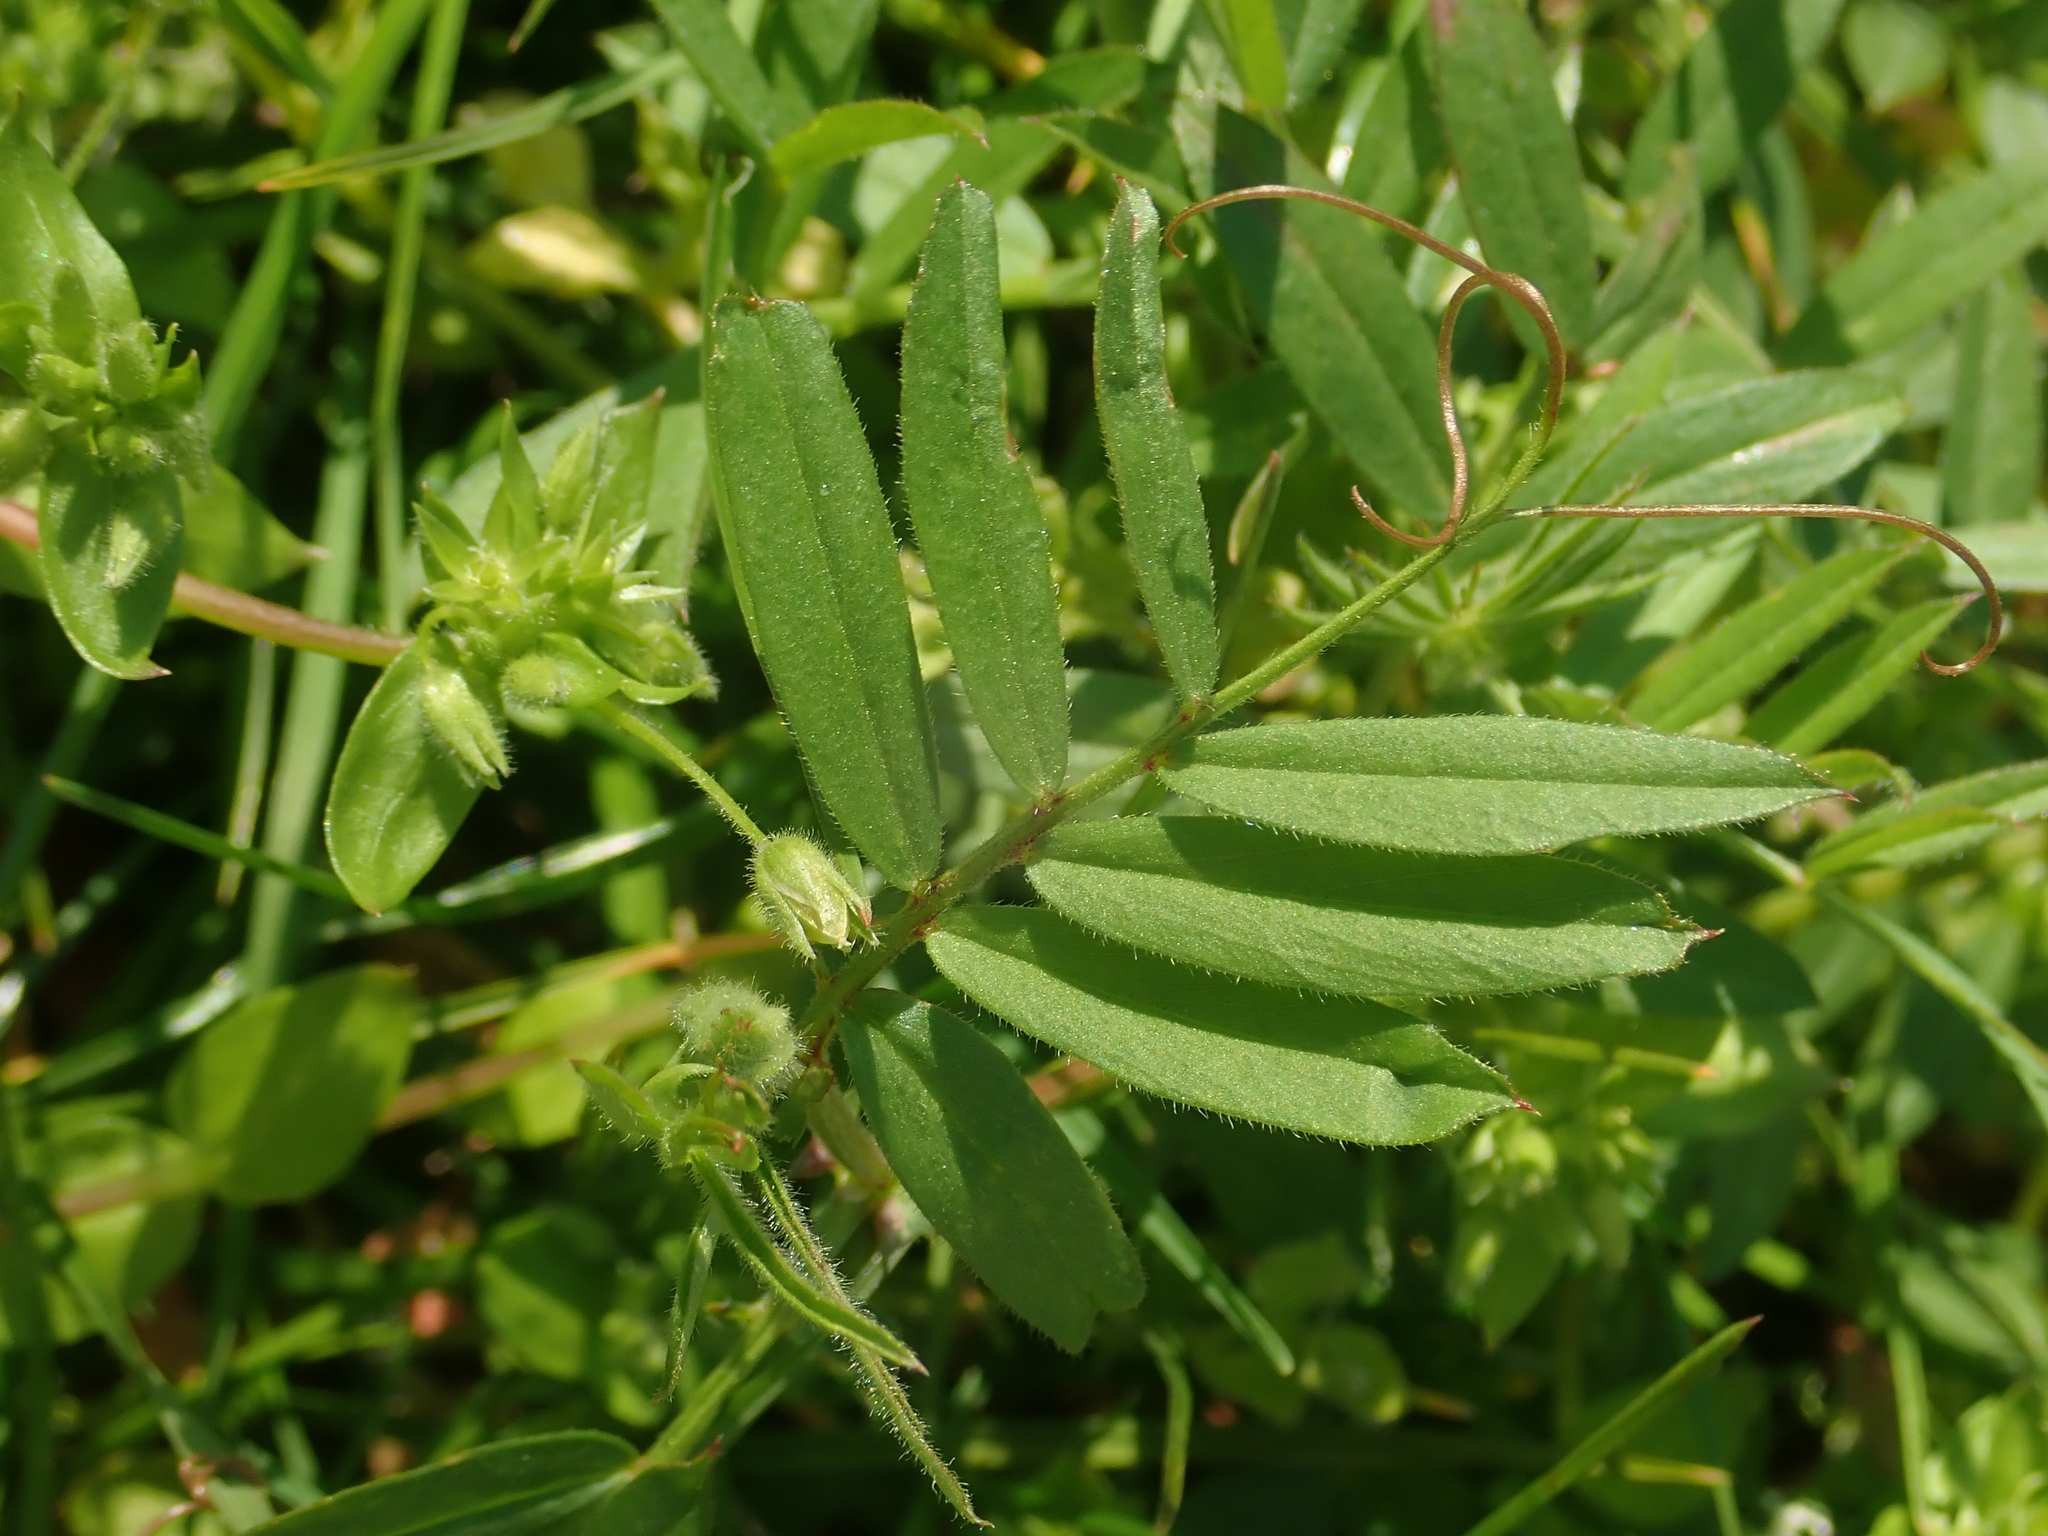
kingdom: Plantae
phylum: Tracheophyta
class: Magnoliopsida
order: Fabales
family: Fabaceae
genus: Vicia
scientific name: Vicia sativa
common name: Garden vetch
